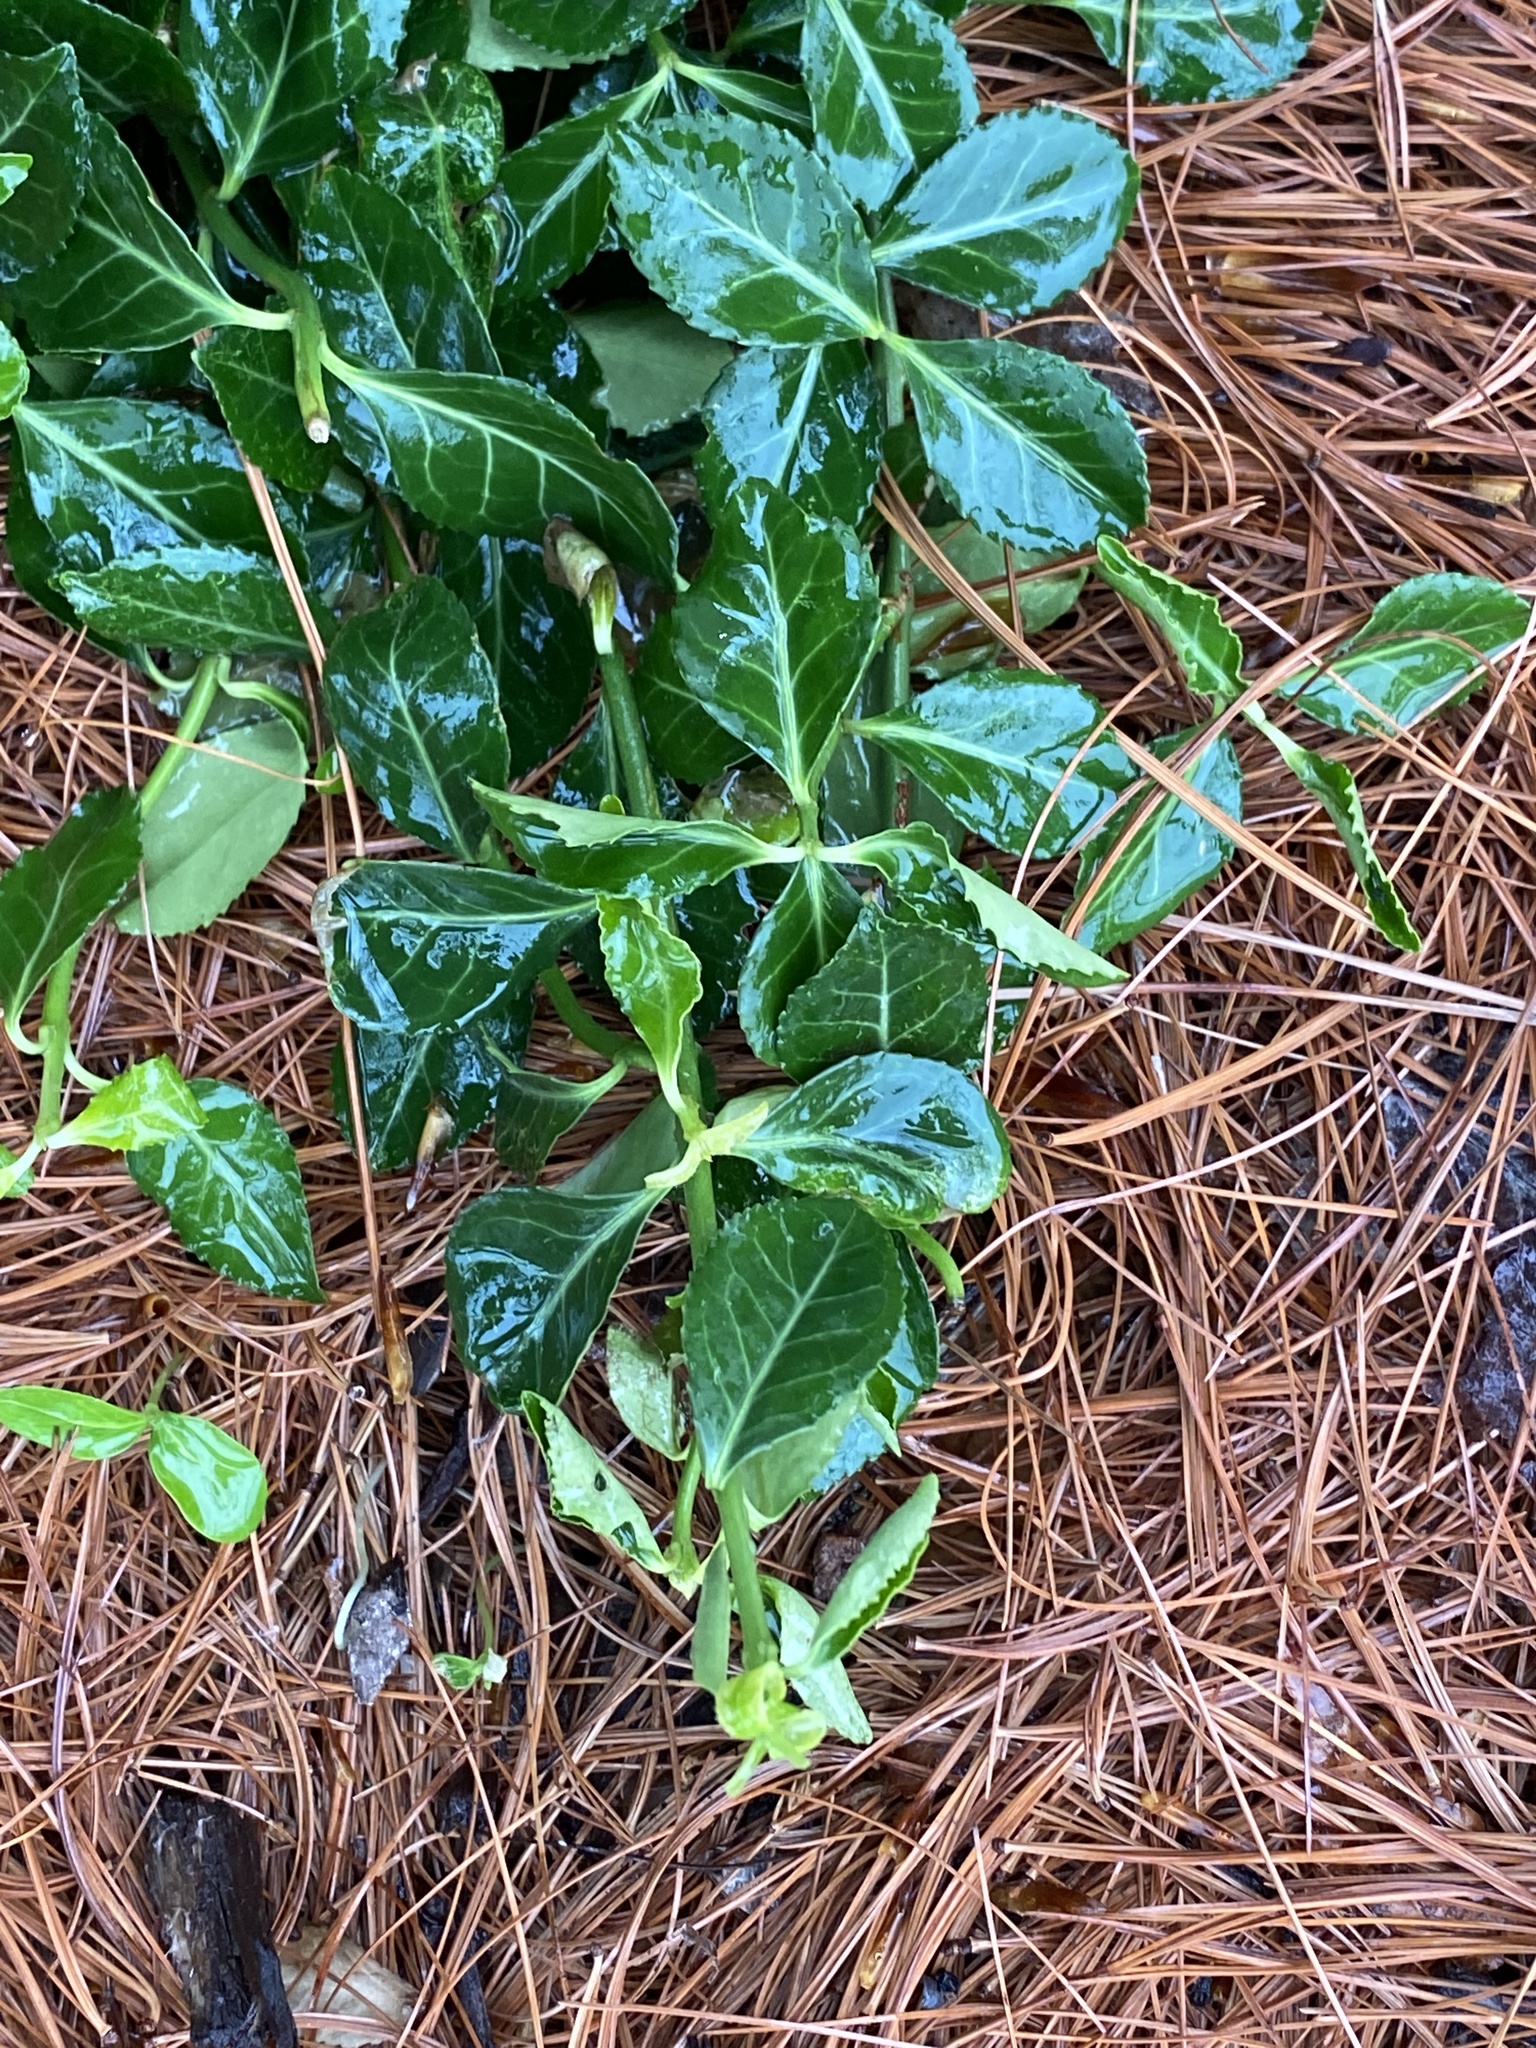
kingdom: Plantae
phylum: Tracheophyta
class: Magnoliopsida
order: Celastrales
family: Celastraceae
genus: Euonymus
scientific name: Euonymus fortunei
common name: Climbing euonymus
